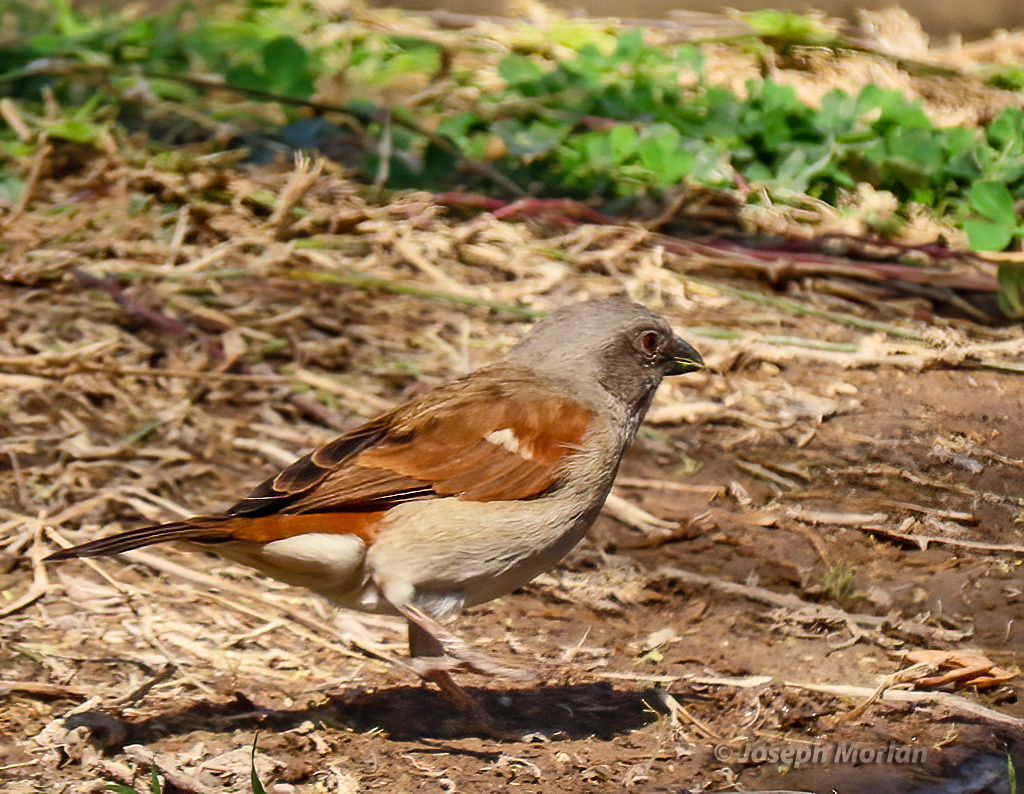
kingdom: Animalia
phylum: Chordata
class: Aves
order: Passeriformes
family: Passeridae
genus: Passer
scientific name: Passer diffusus
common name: Southern grey-headed sparrow
